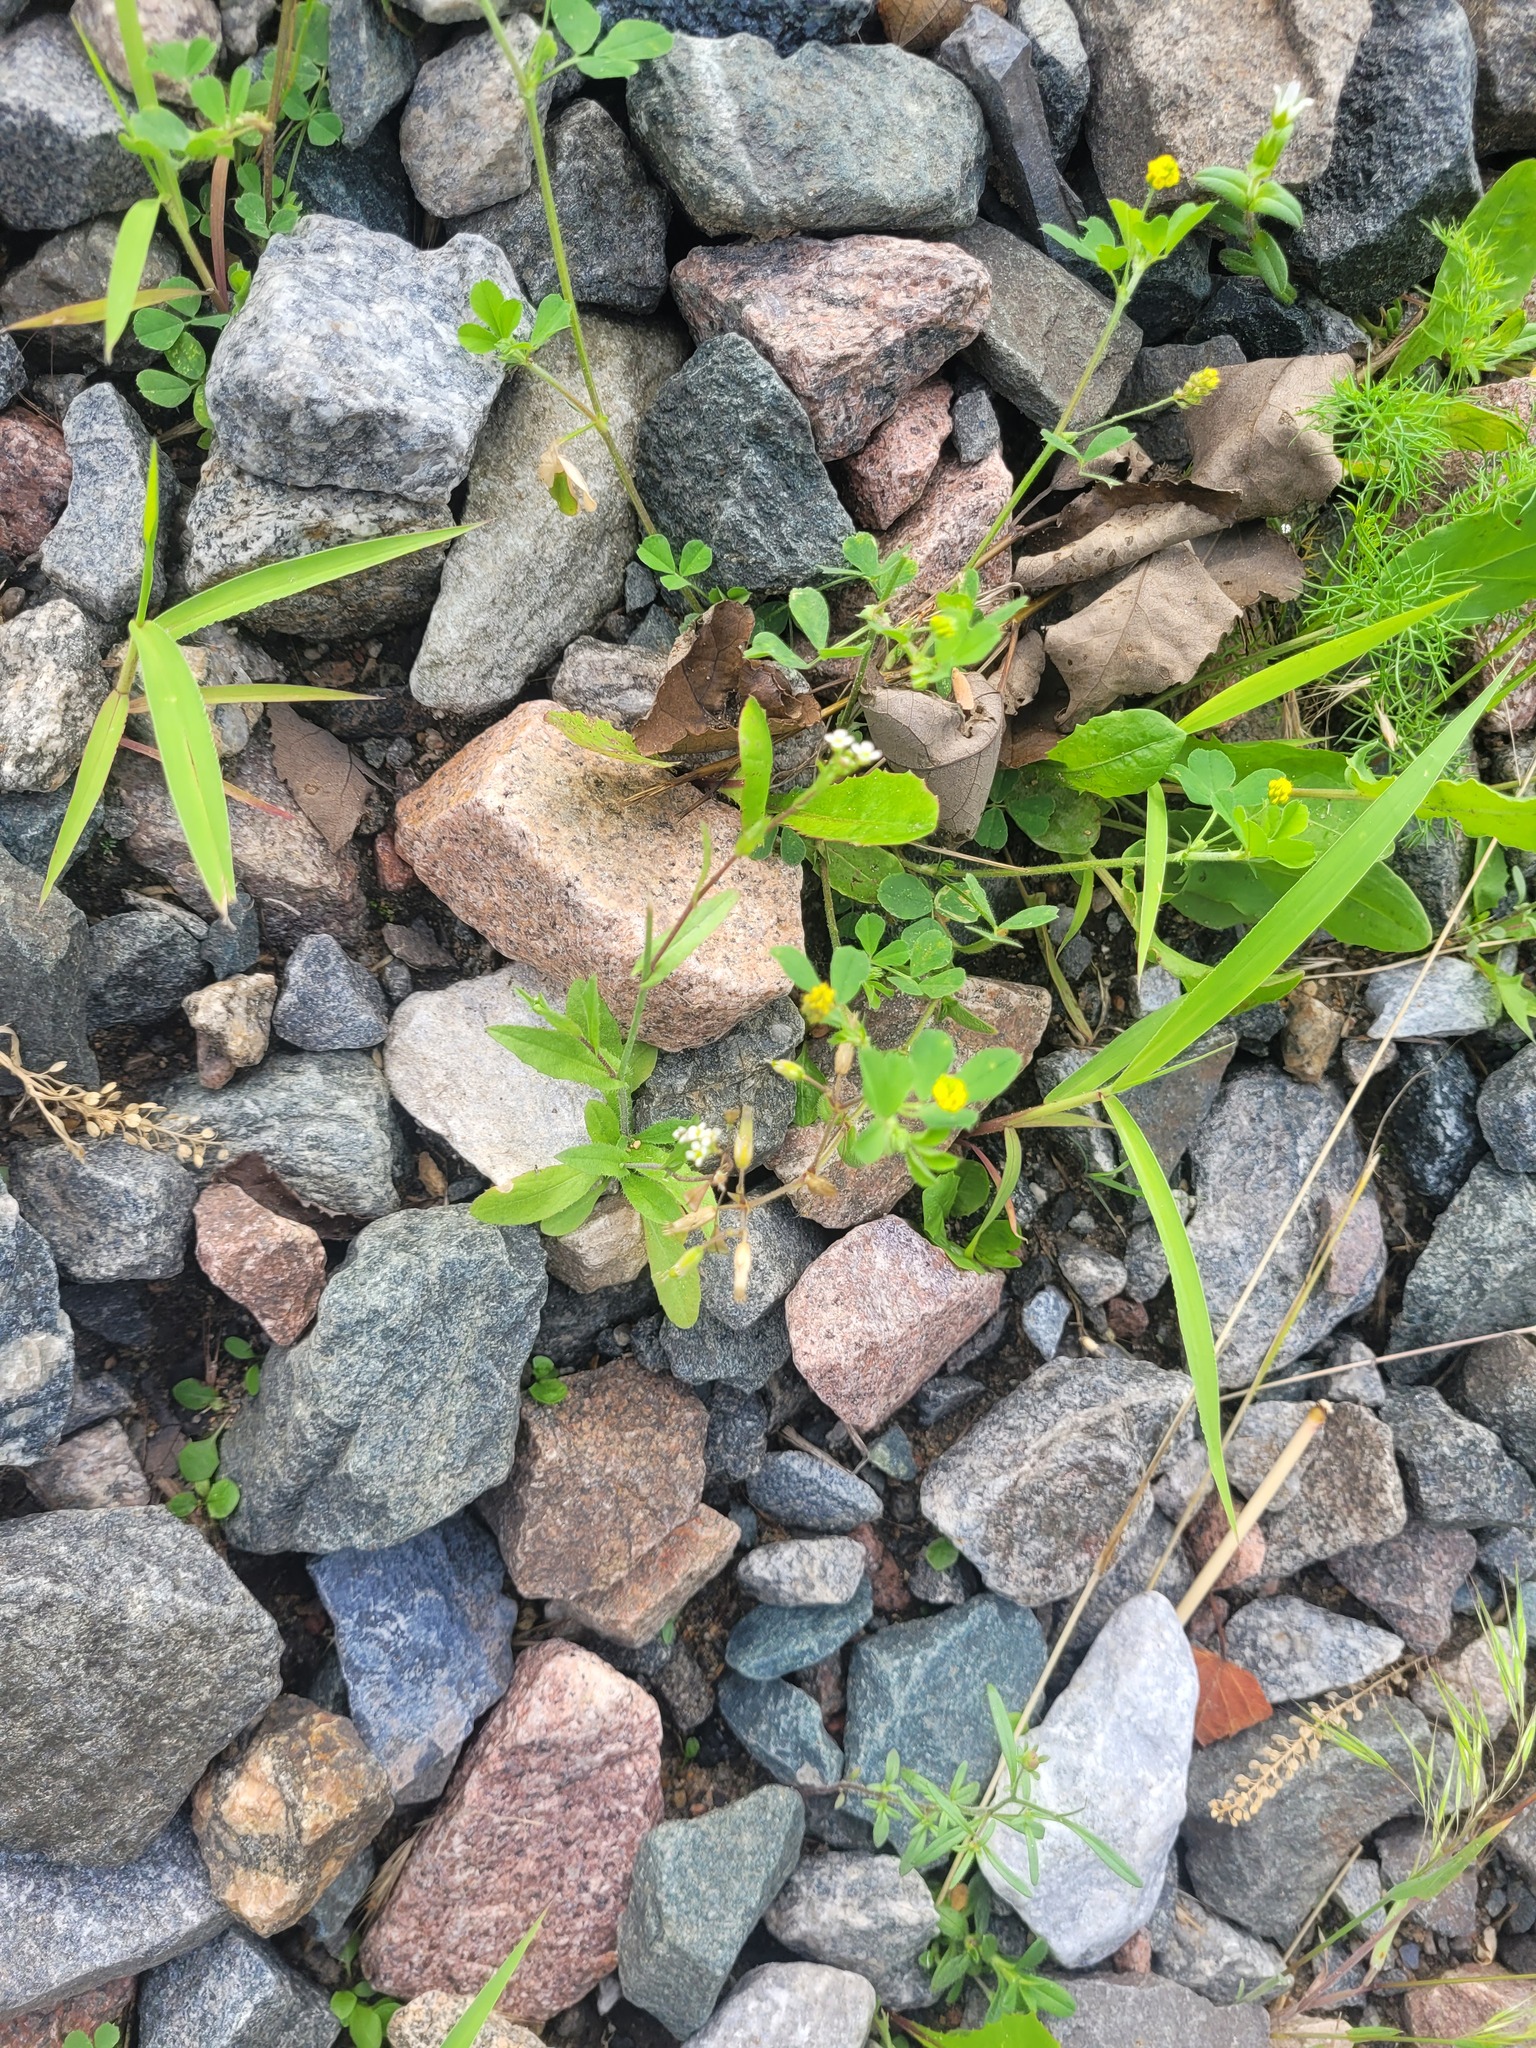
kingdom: Plantae
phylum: Tracheophyta
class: Magnoliopsida
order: Brassicales
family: Brassicaceae
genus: Capsella
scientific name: Capsella bursa-pastoris
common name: Shepherd's purse
